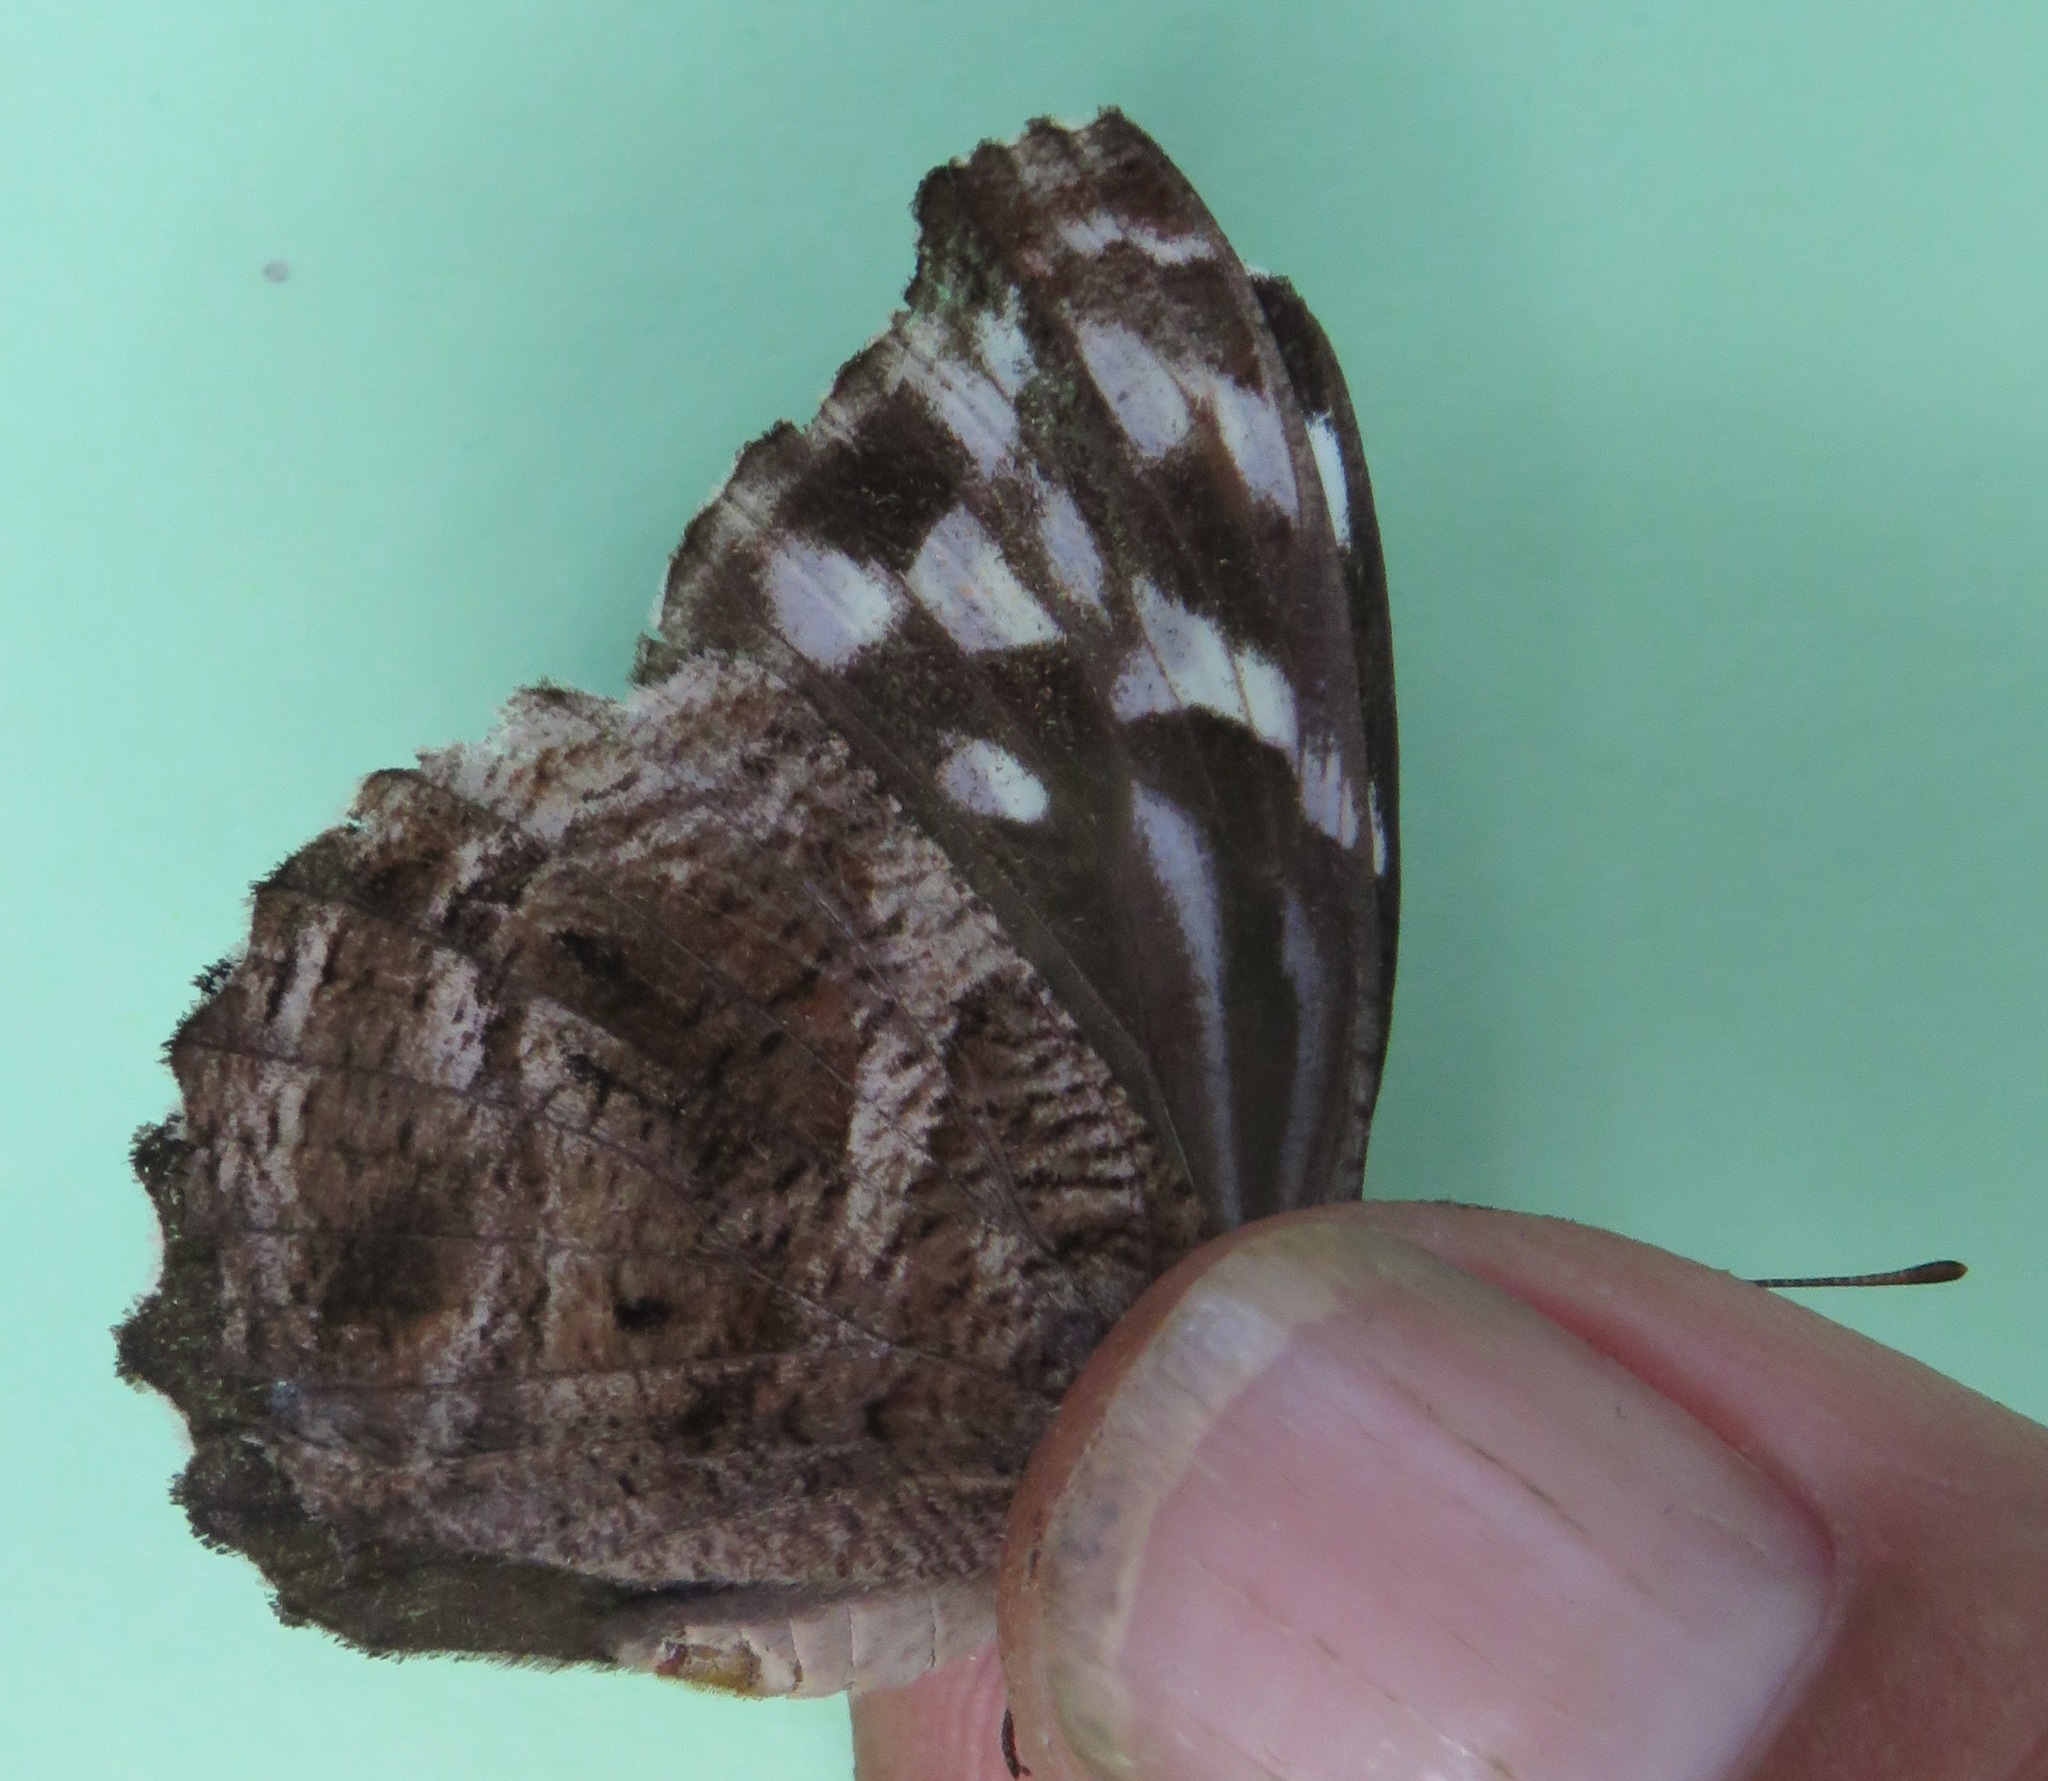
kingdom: Animalia
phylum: Arthropoda
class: Insecta
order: Lepidoptera
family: Nymphalidae
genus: Myscelia
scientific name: Myscelia ethusa
